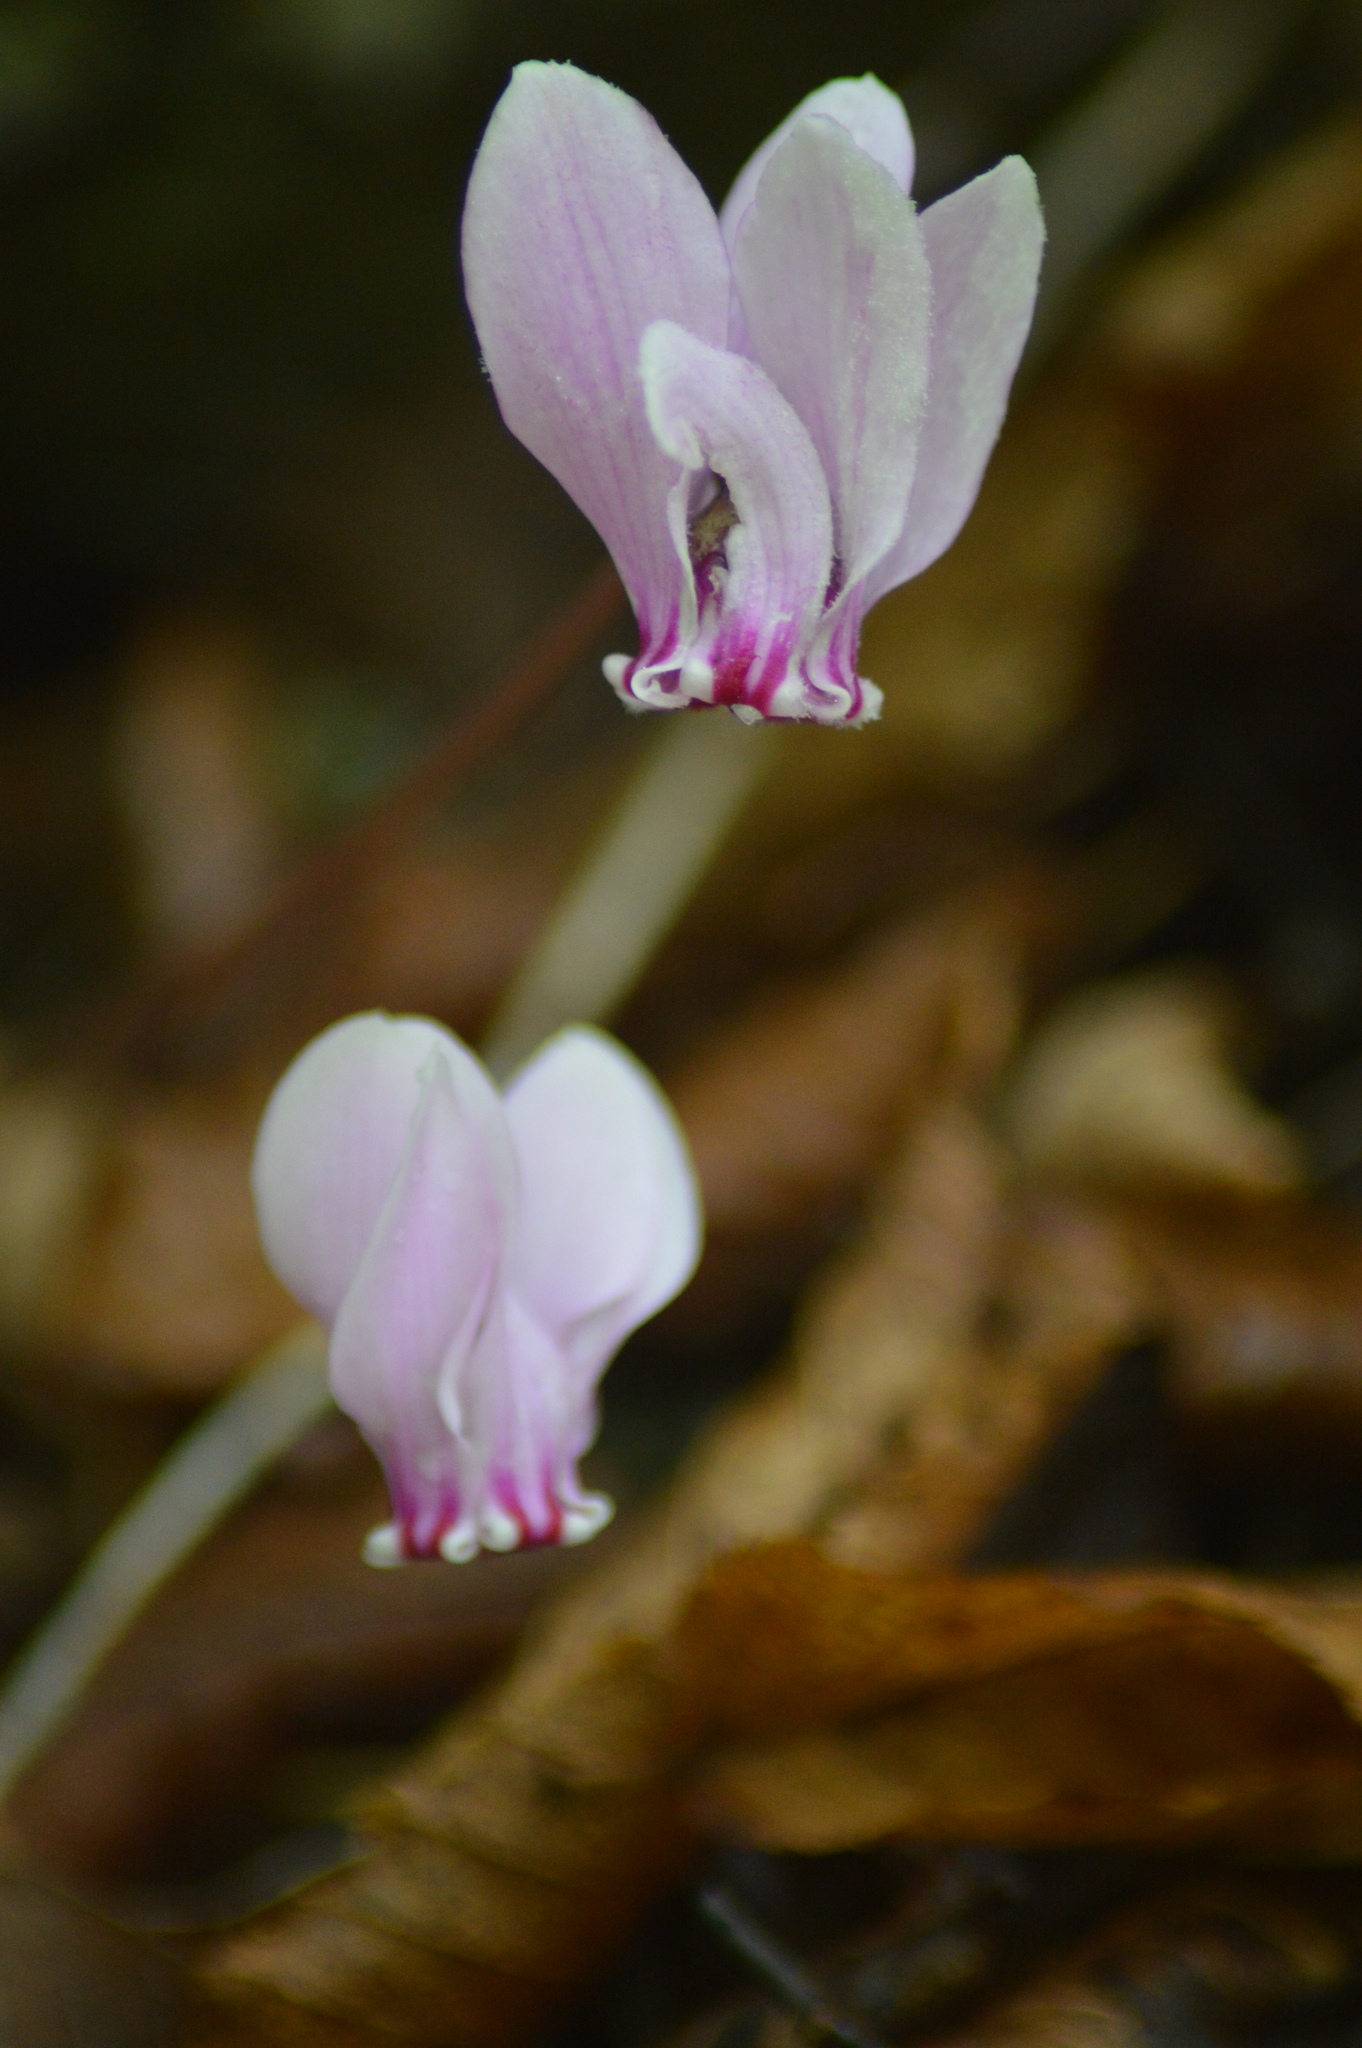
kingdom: Plantae
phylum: Tracheophyta
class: Magnoliopsida
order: Ericales
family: Primulaceae
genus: Cyclamen
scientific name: Cyclamen hederifolium
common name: Sowbread
